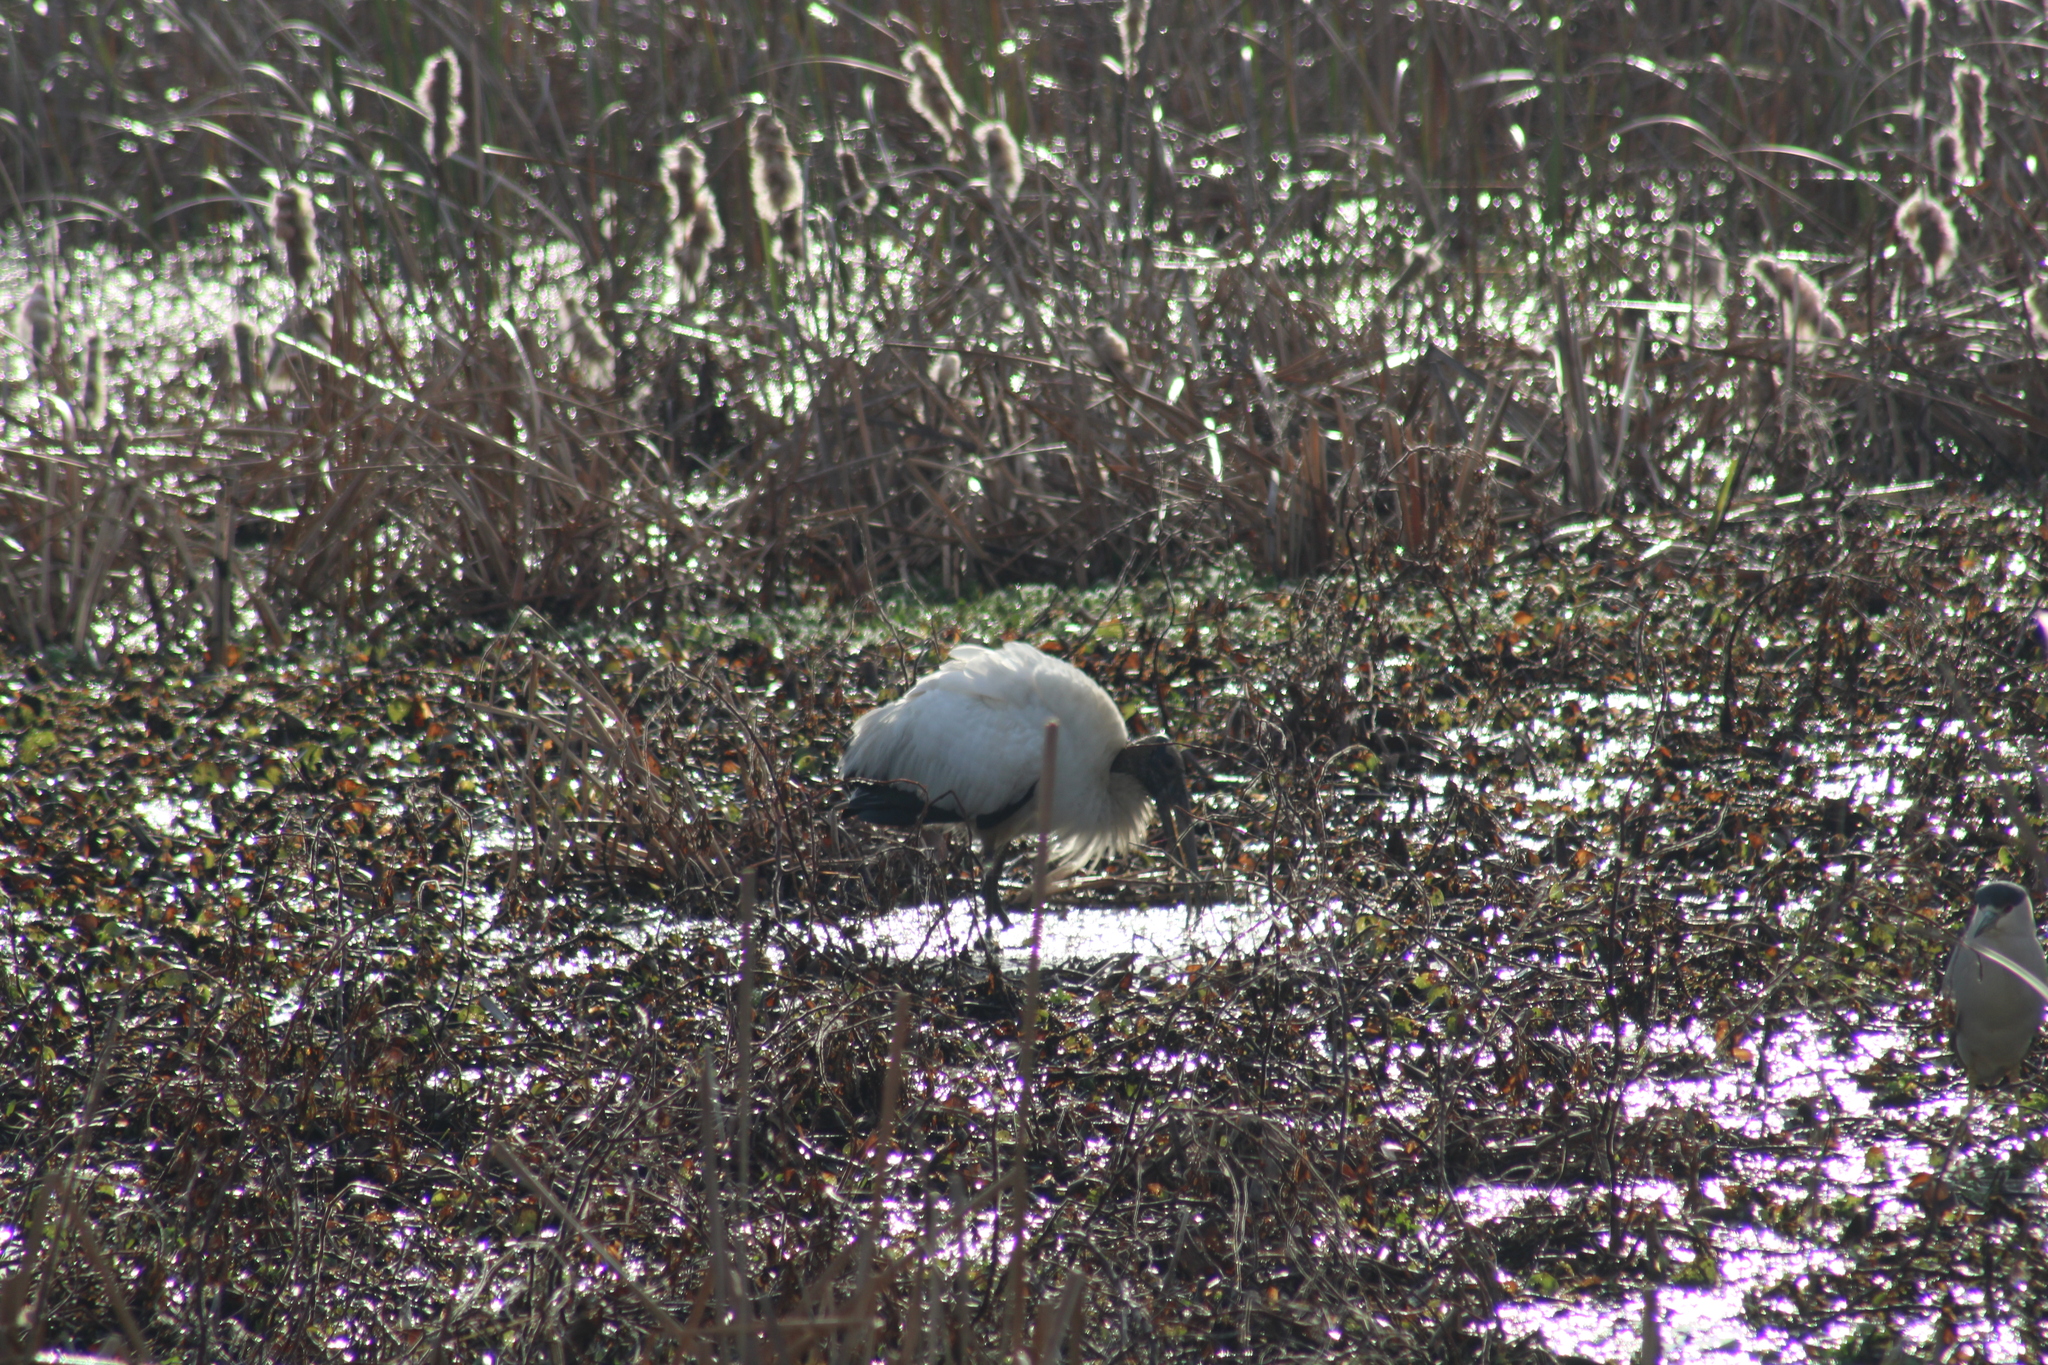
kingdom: Animalia
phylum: Chordata
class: Aves
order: Ciconiiformes
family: Ciconiidae
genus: Mycteria
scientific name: Mycteria americana
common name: Wood stork
